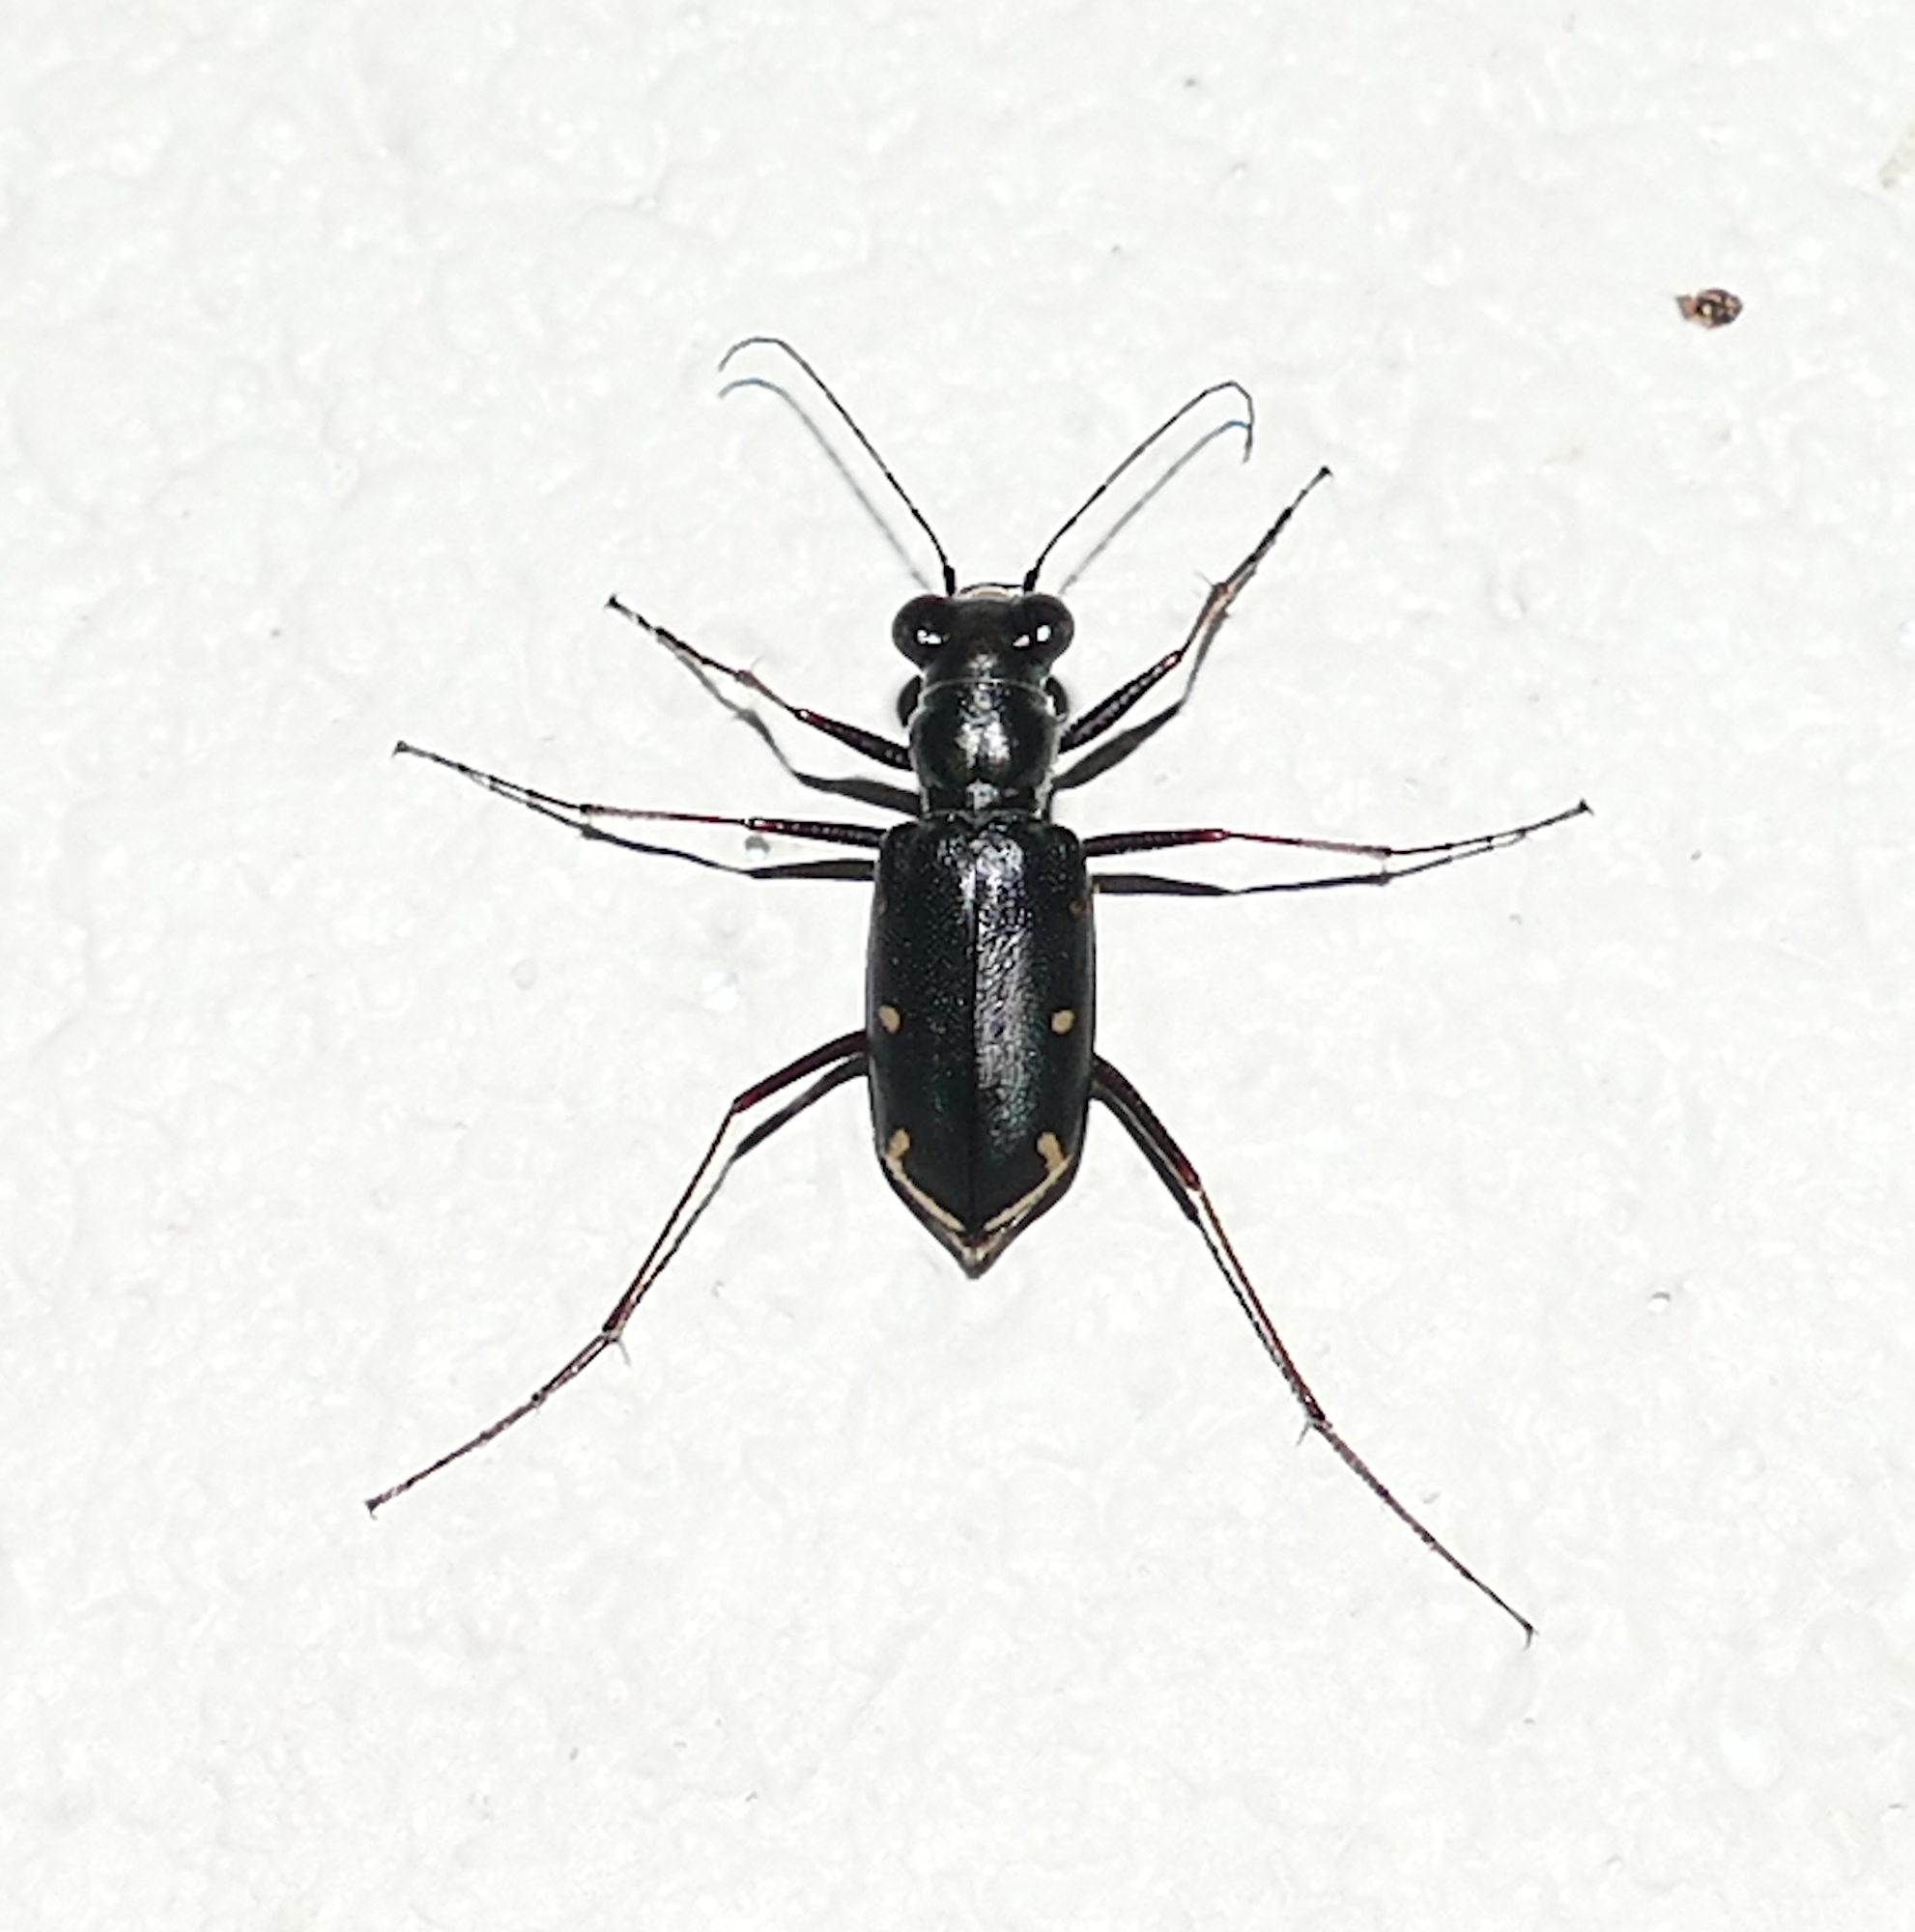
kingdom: Animalia
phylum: Arthropoda
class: Insecta
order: Coleoptera
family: Carabidae
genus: Eunota
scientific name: Eunota severa
